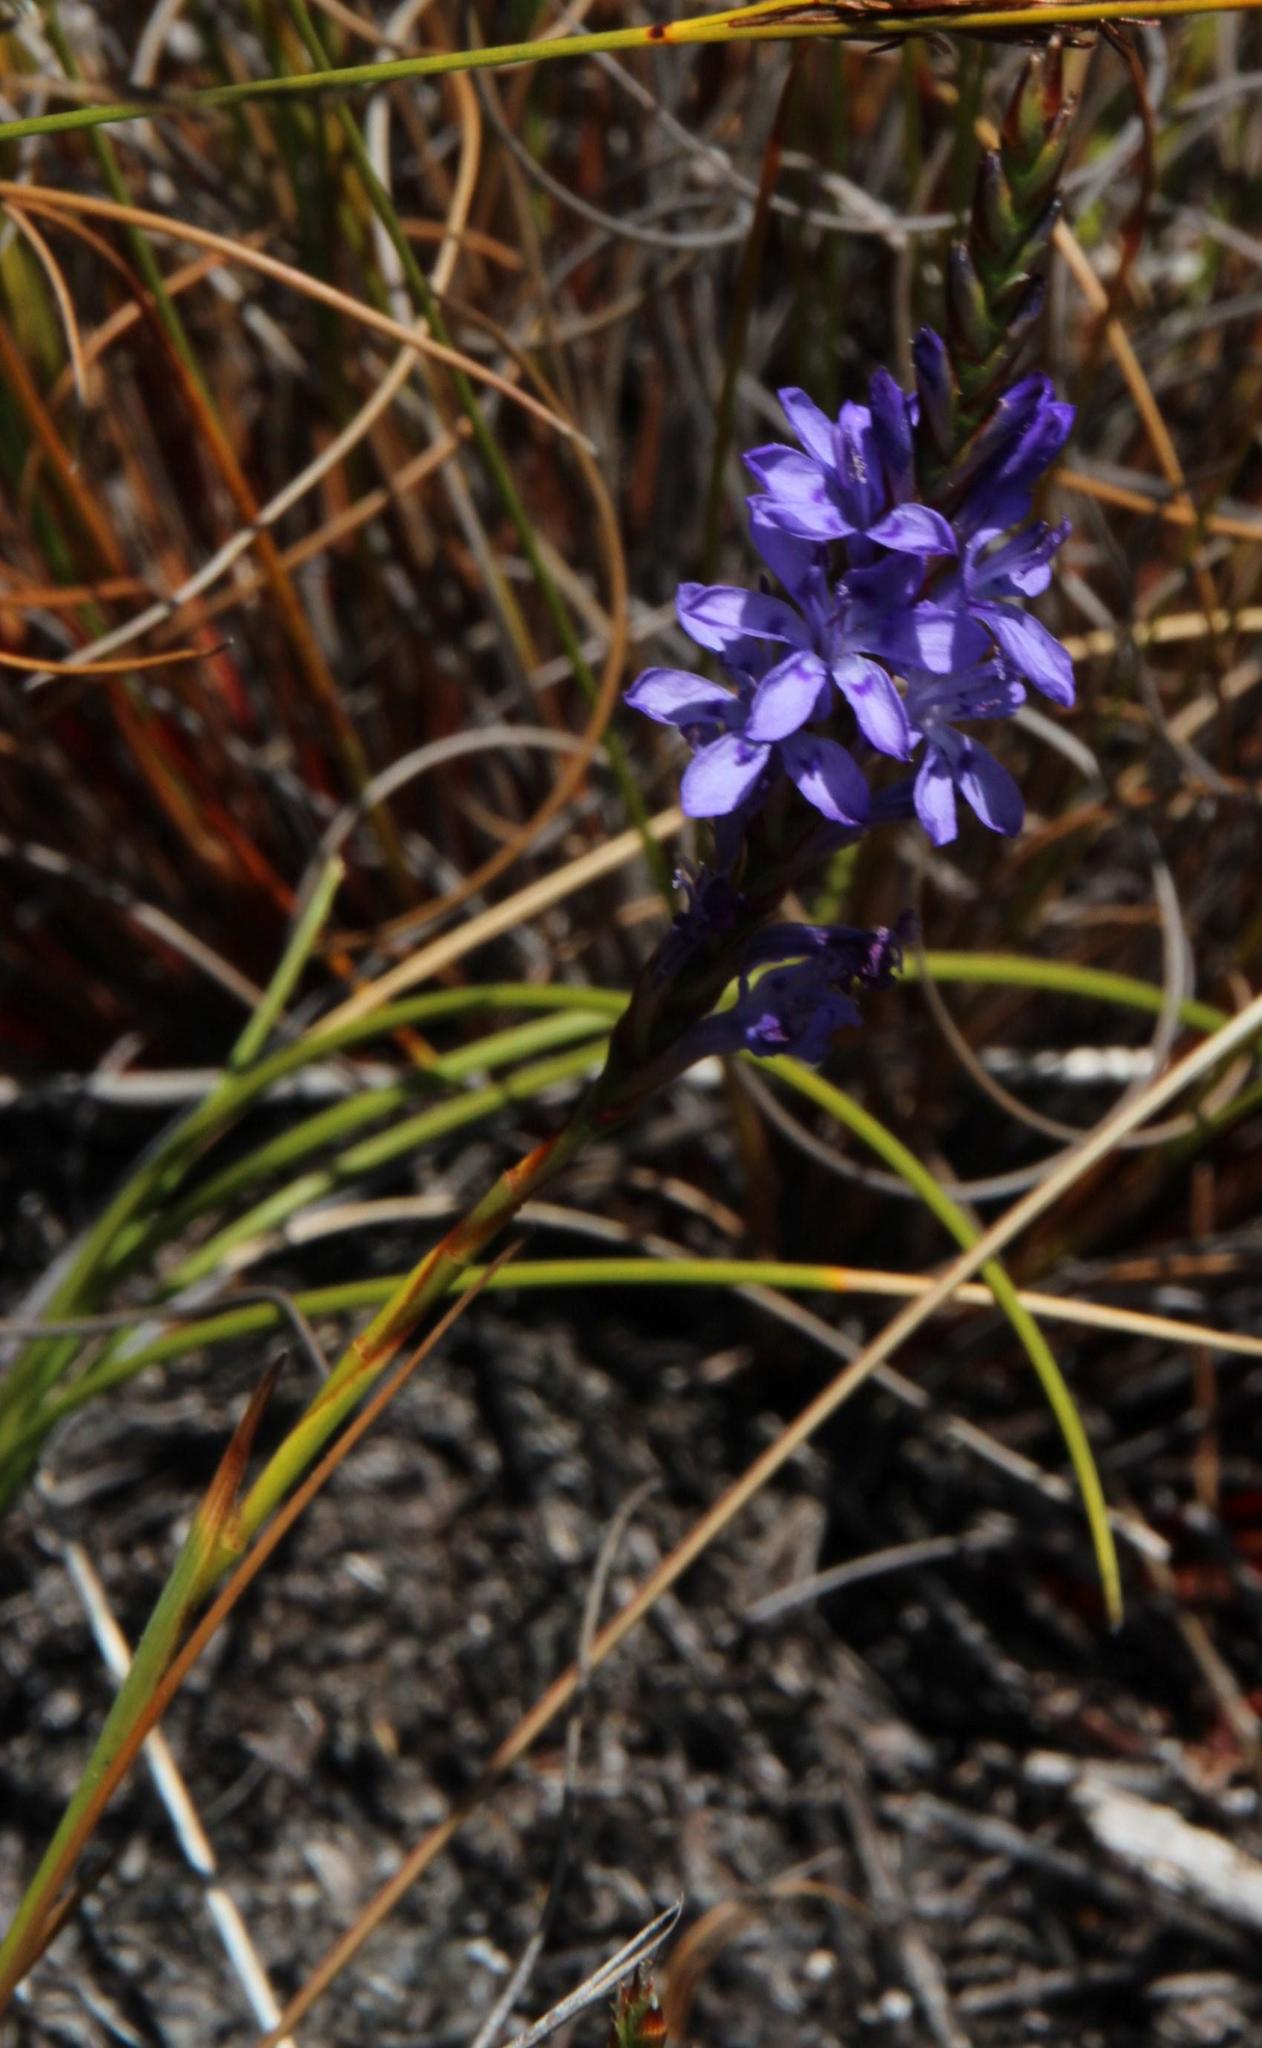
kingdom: Plantae
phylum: Tracheophyta
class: Liliopsida
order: Asparagales
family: Iridaceae
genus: Thereianthus
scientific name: Thereianthus bracteolatus
